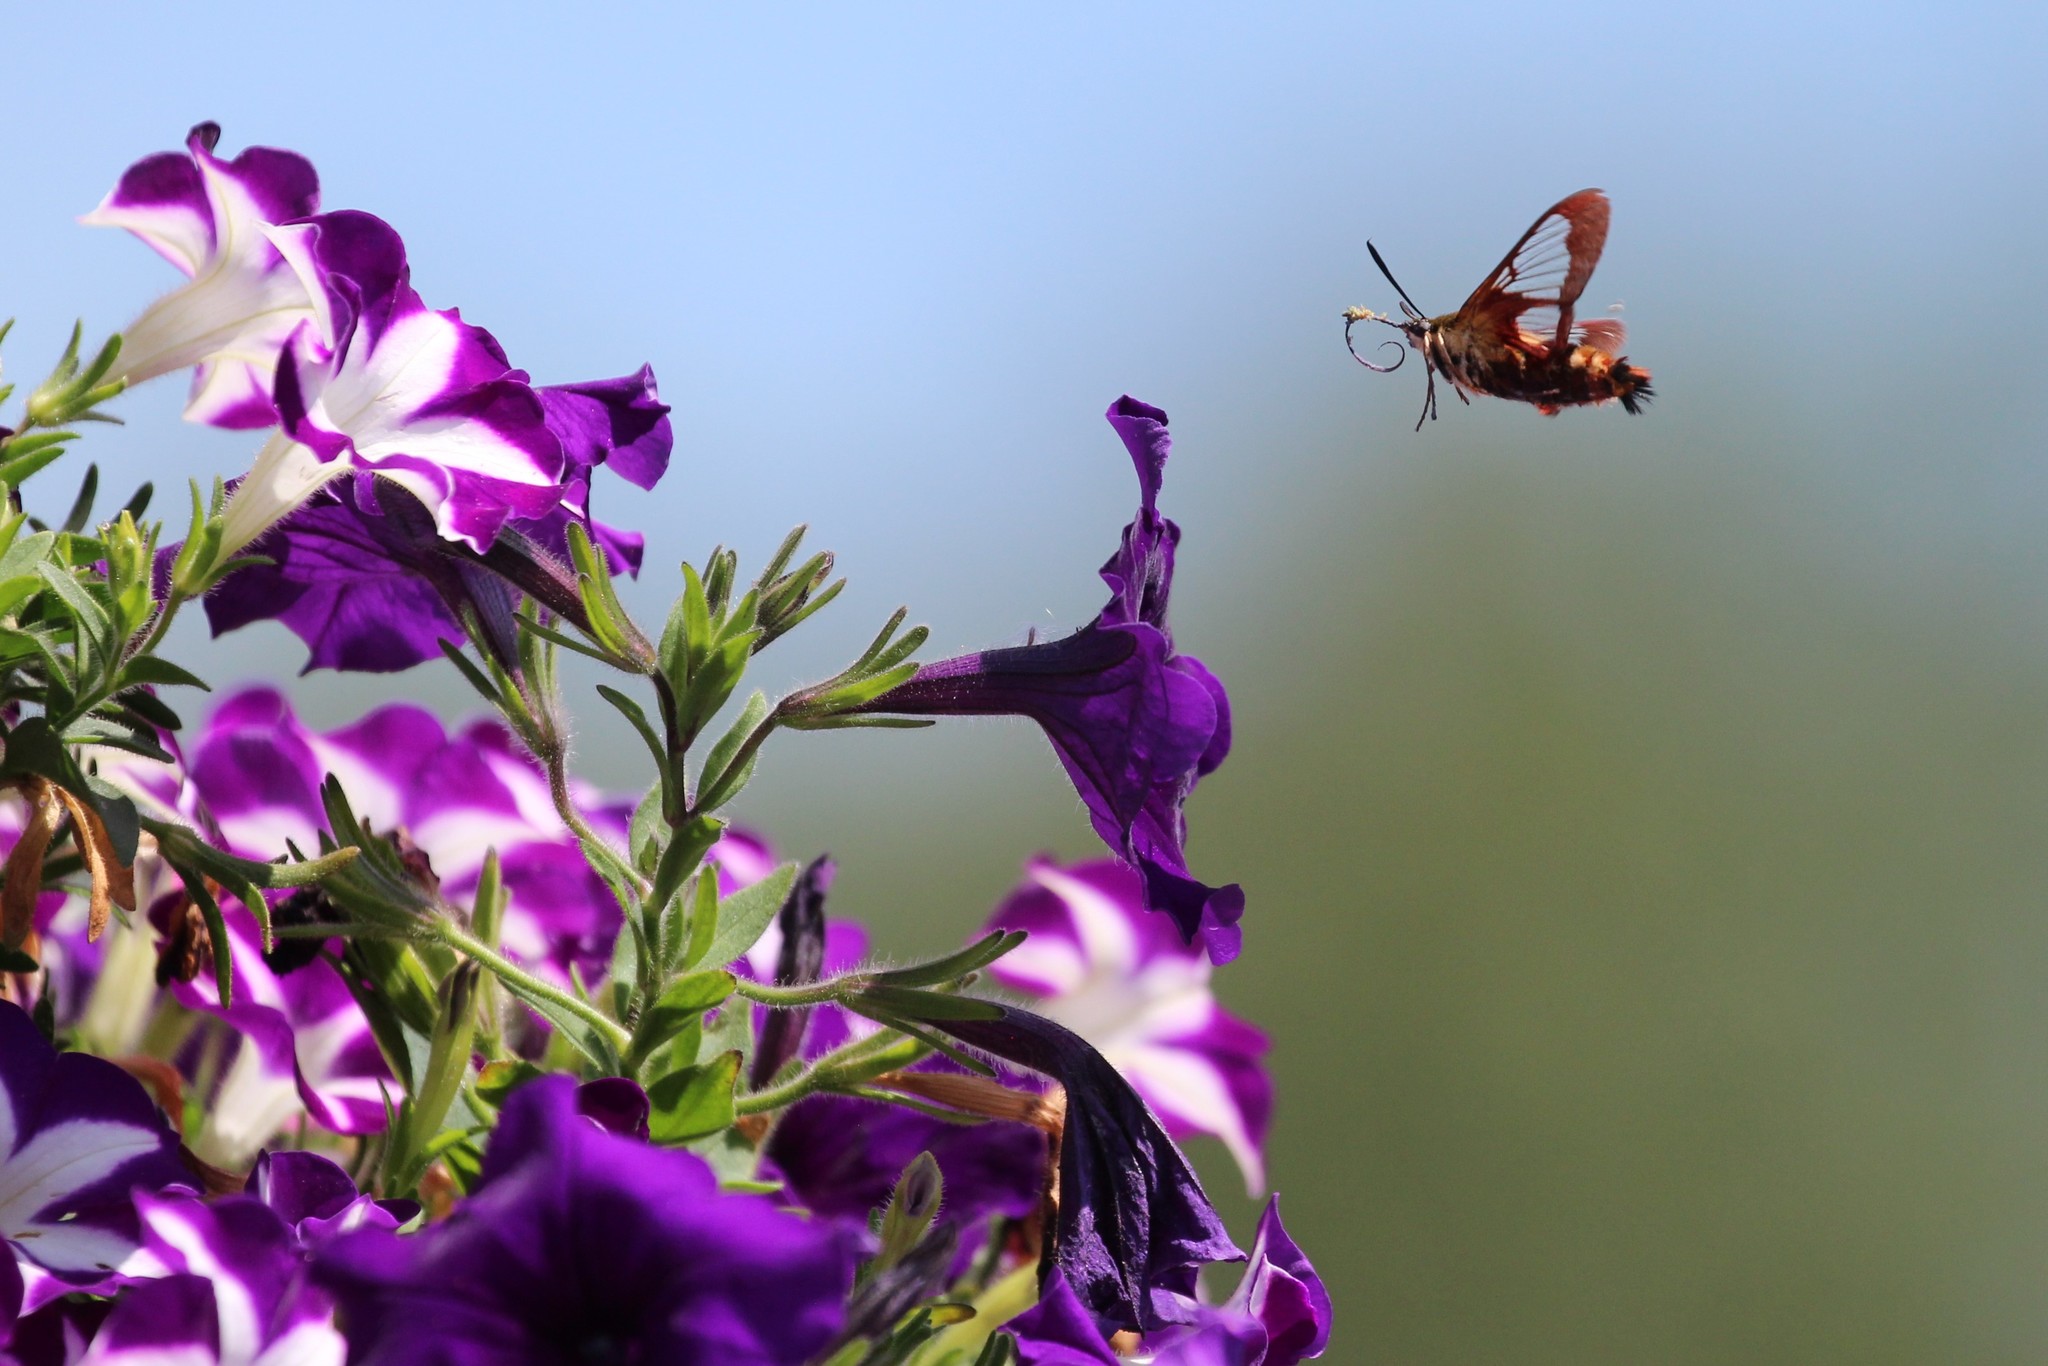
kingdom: Animalia
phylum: Arthropoda
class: Insecta
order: Lepidoptera
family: Sphingidae
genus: Hemaris
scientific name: Hemaris thysbe
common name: Common clear-wing
